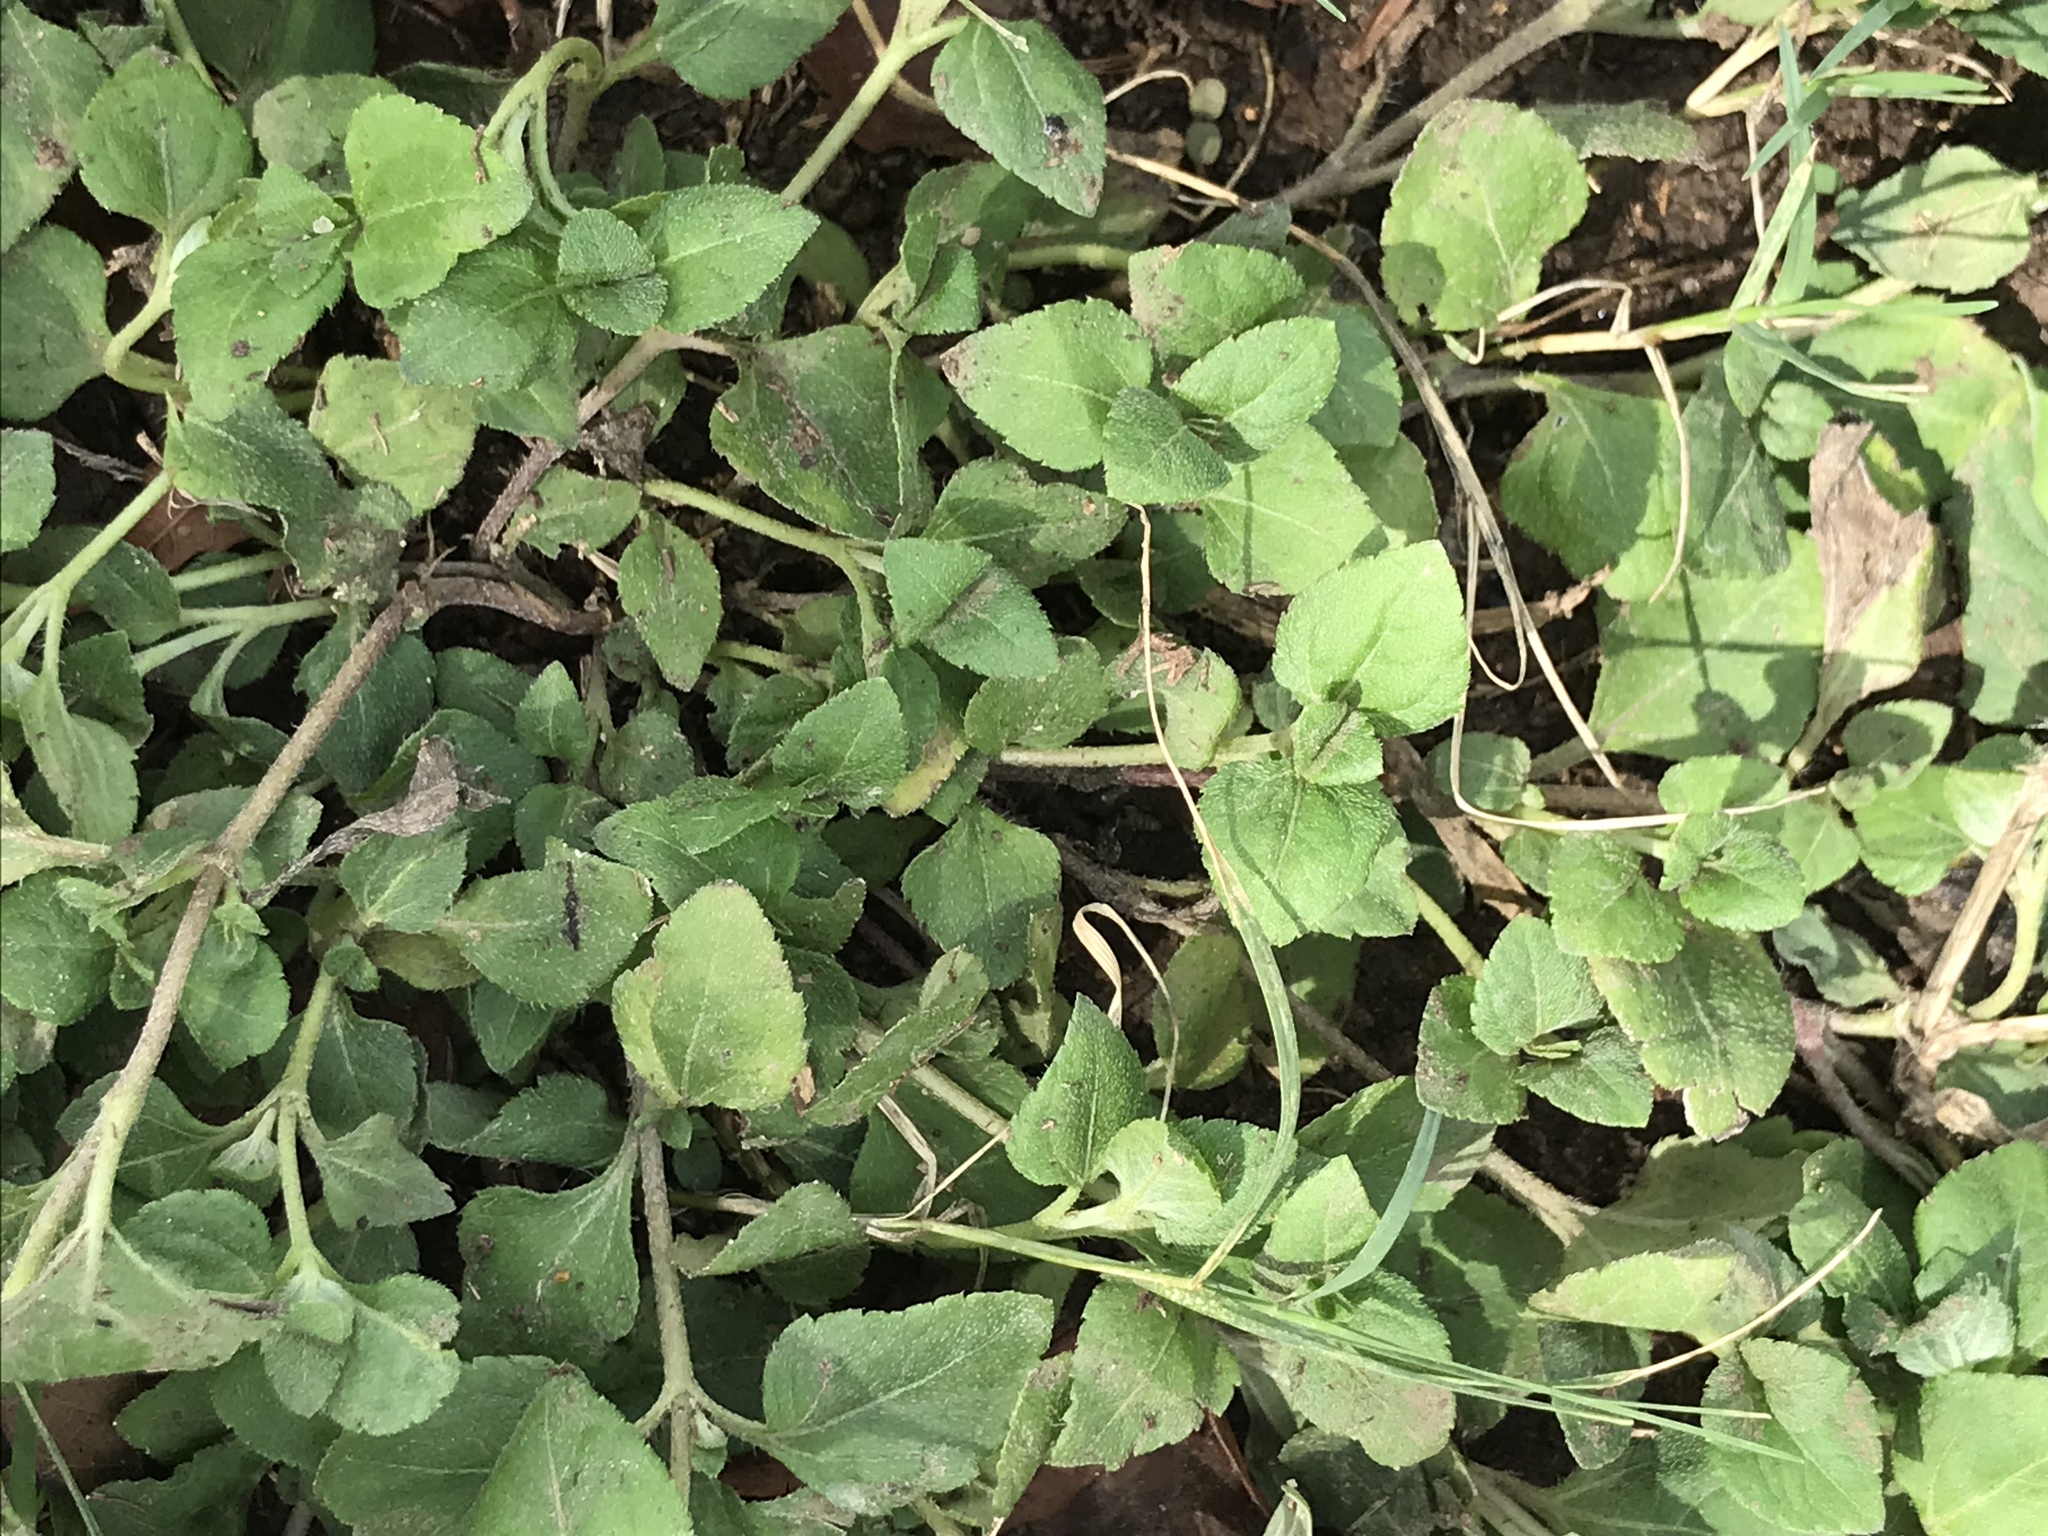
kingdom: Plantae
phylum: Tracheophyta
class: Magnoliopsida
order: Asterales
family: Asteraceae
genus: Calyptocarpus
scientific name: Calyptocarpus vialis
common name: Straggler daisy
